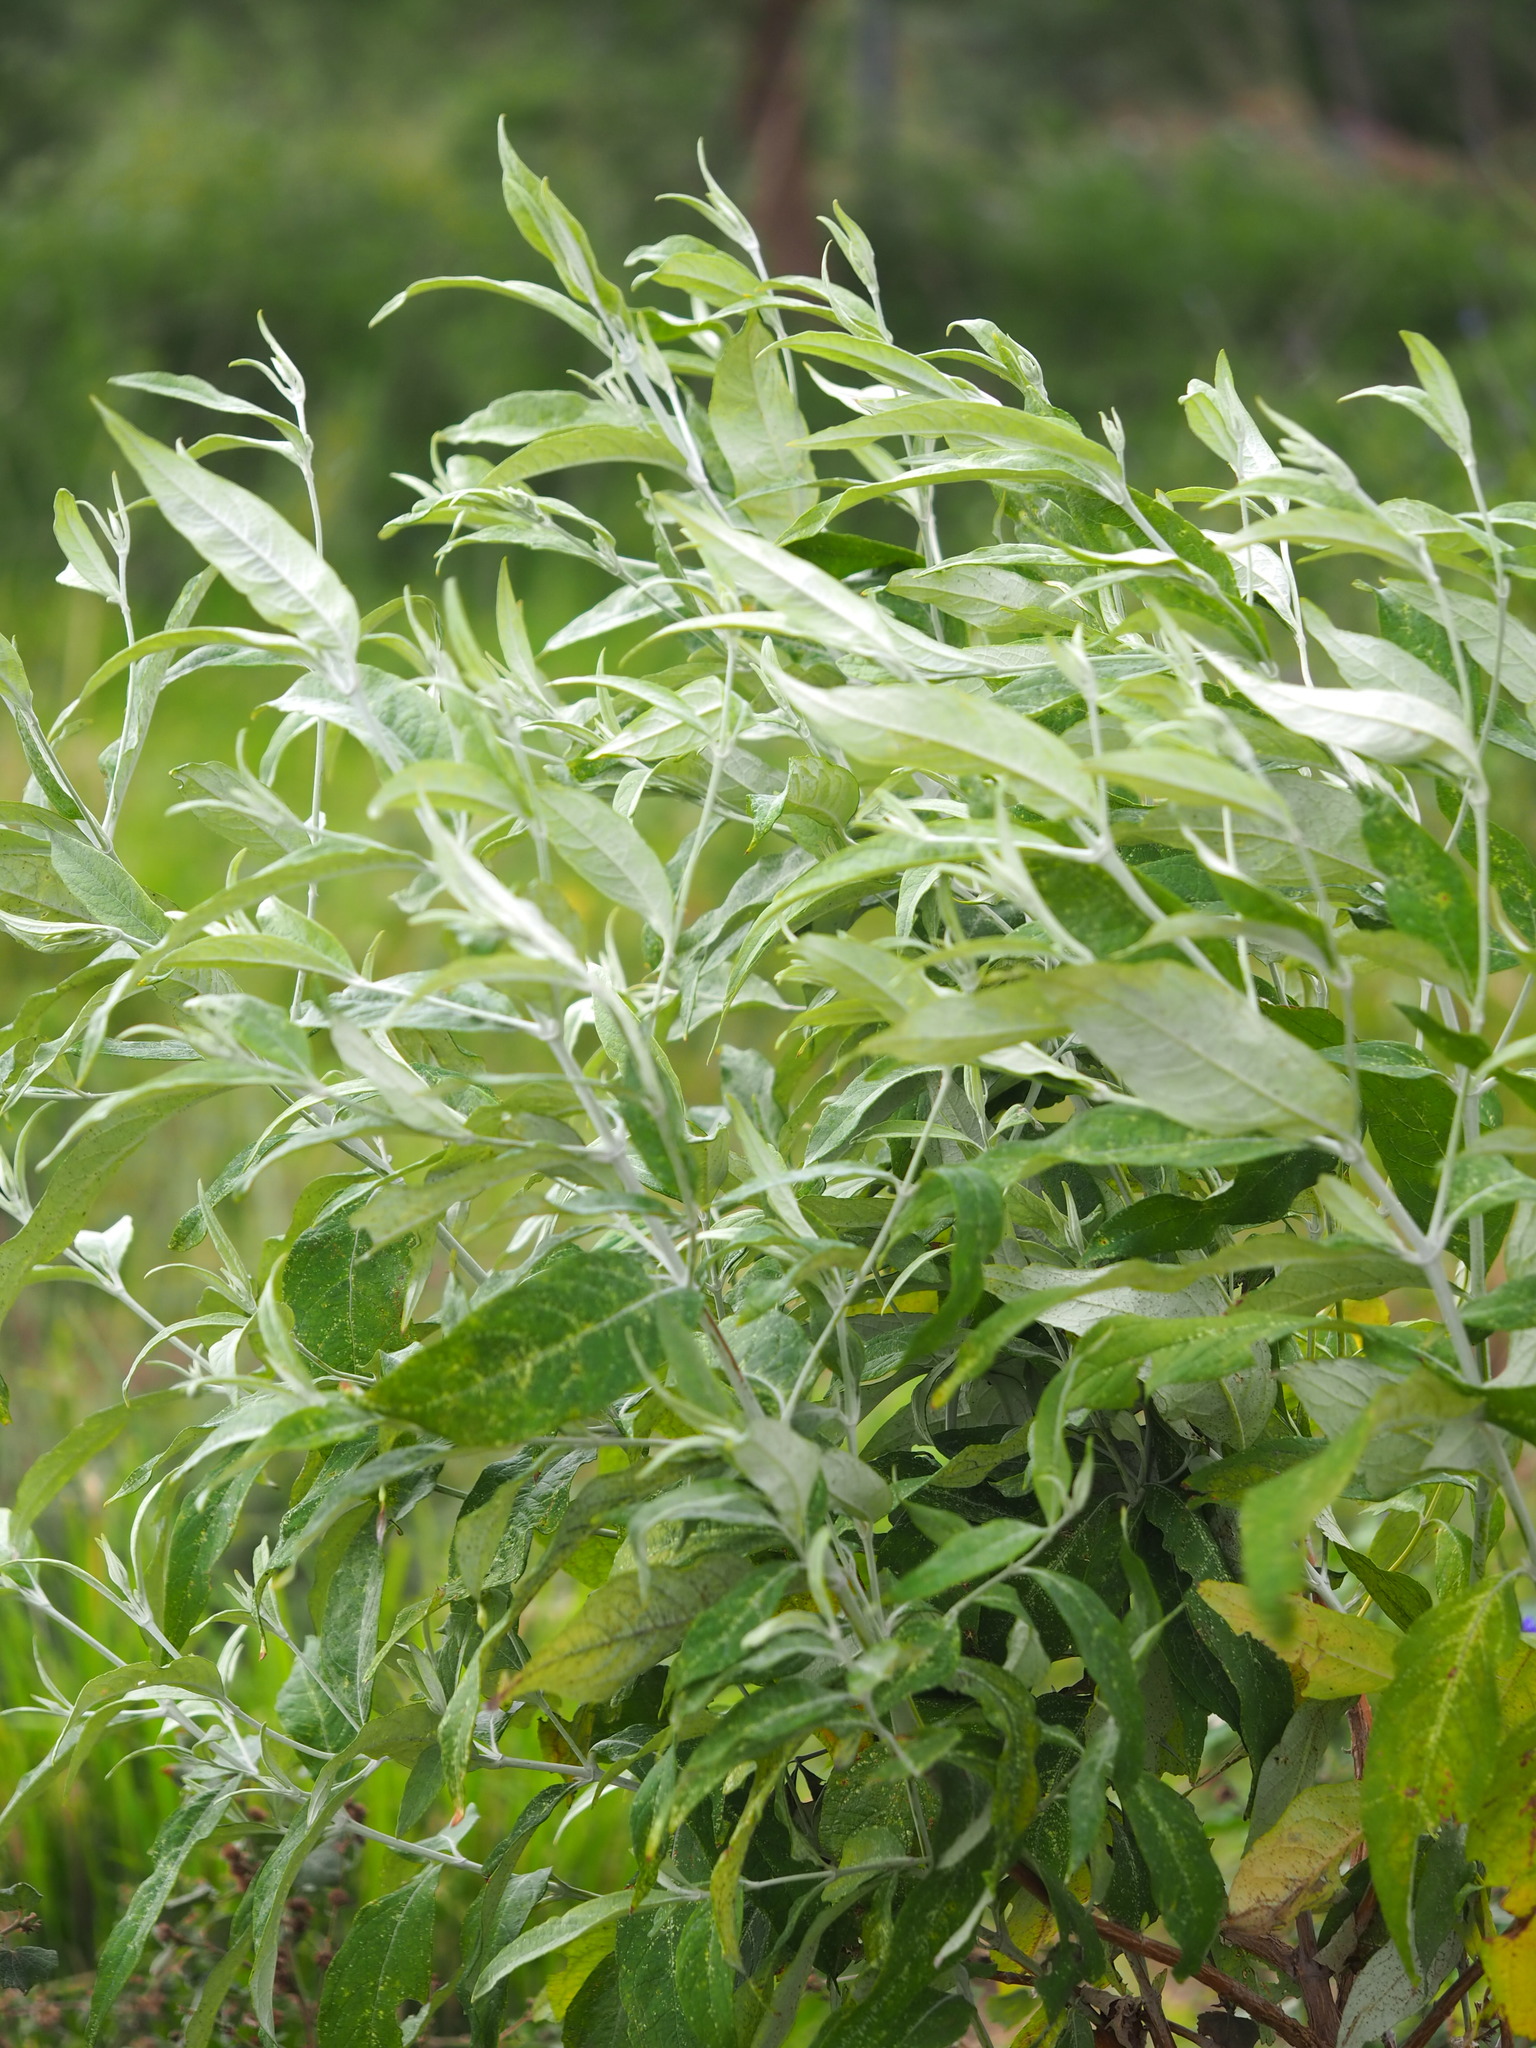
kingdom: Plantae
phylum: Tracheophyta
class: Magnoliopsida
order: Lamiales
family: Scrophulariaceae
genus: Buddleja
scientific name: Buddleja asiatica
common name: Dog tail
